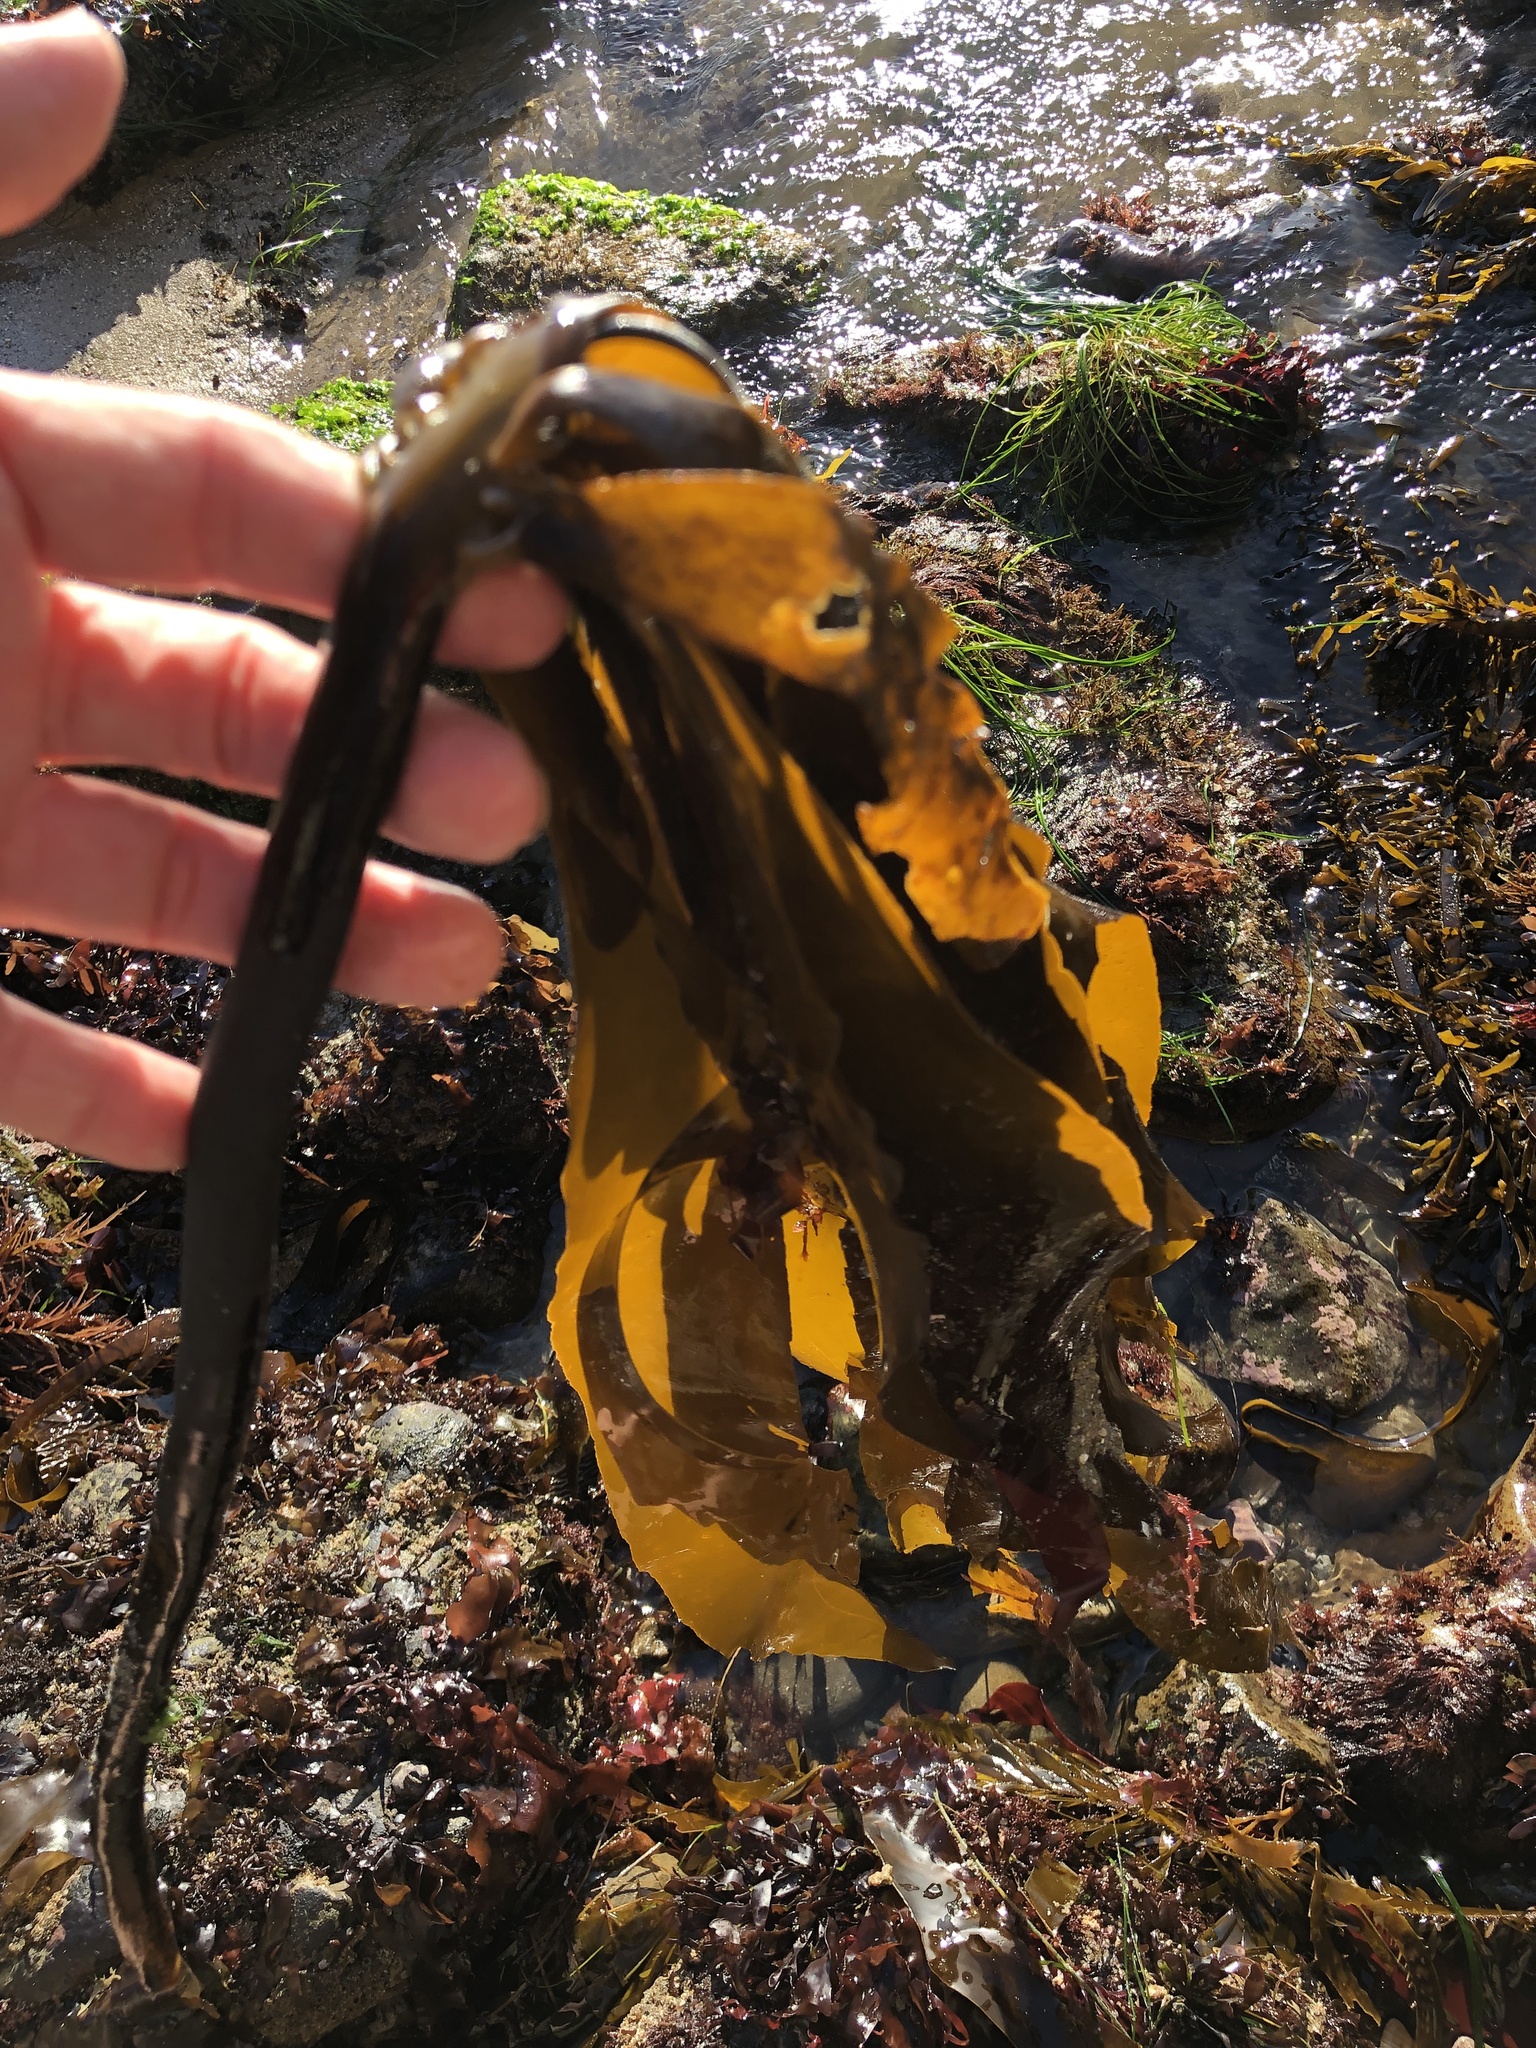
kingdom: Chromista
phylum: Ochrophyta
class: Phaeophyceae
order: Laminariales
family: Alariaceae
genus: Pterygophora
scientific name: Pterygophora californica
